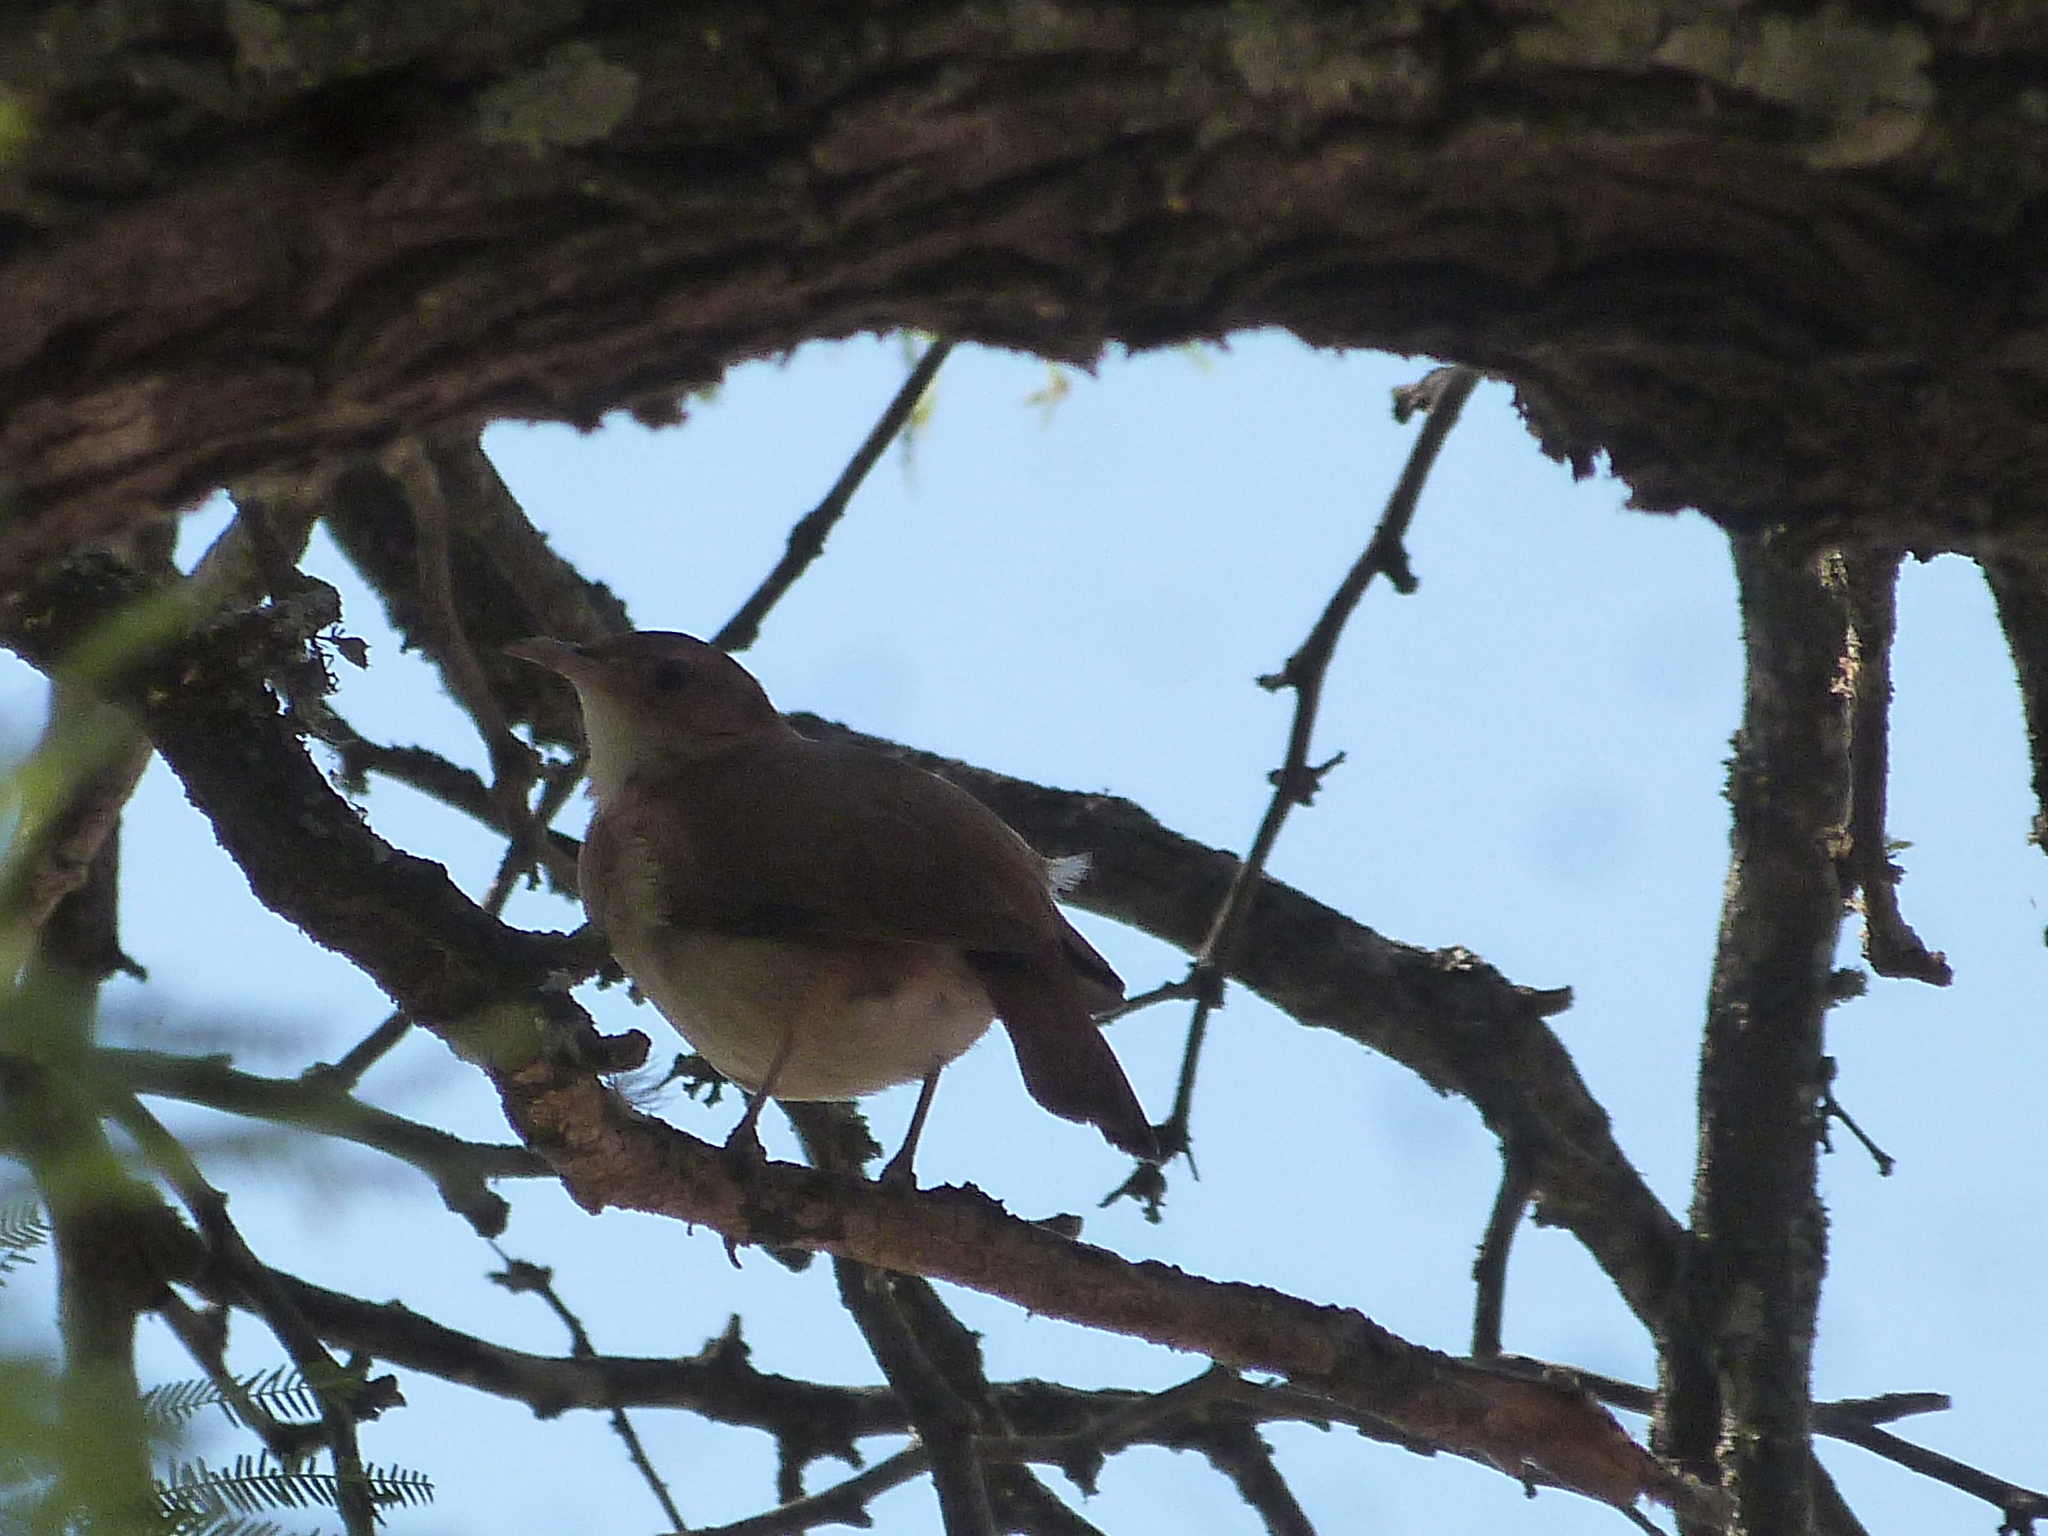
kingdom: Animalia
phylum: Chordata
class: Aves
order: Passeriformes
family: Furnariidae
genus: Furnarius
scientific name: Furnarius rufus
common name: Rufous hornero
